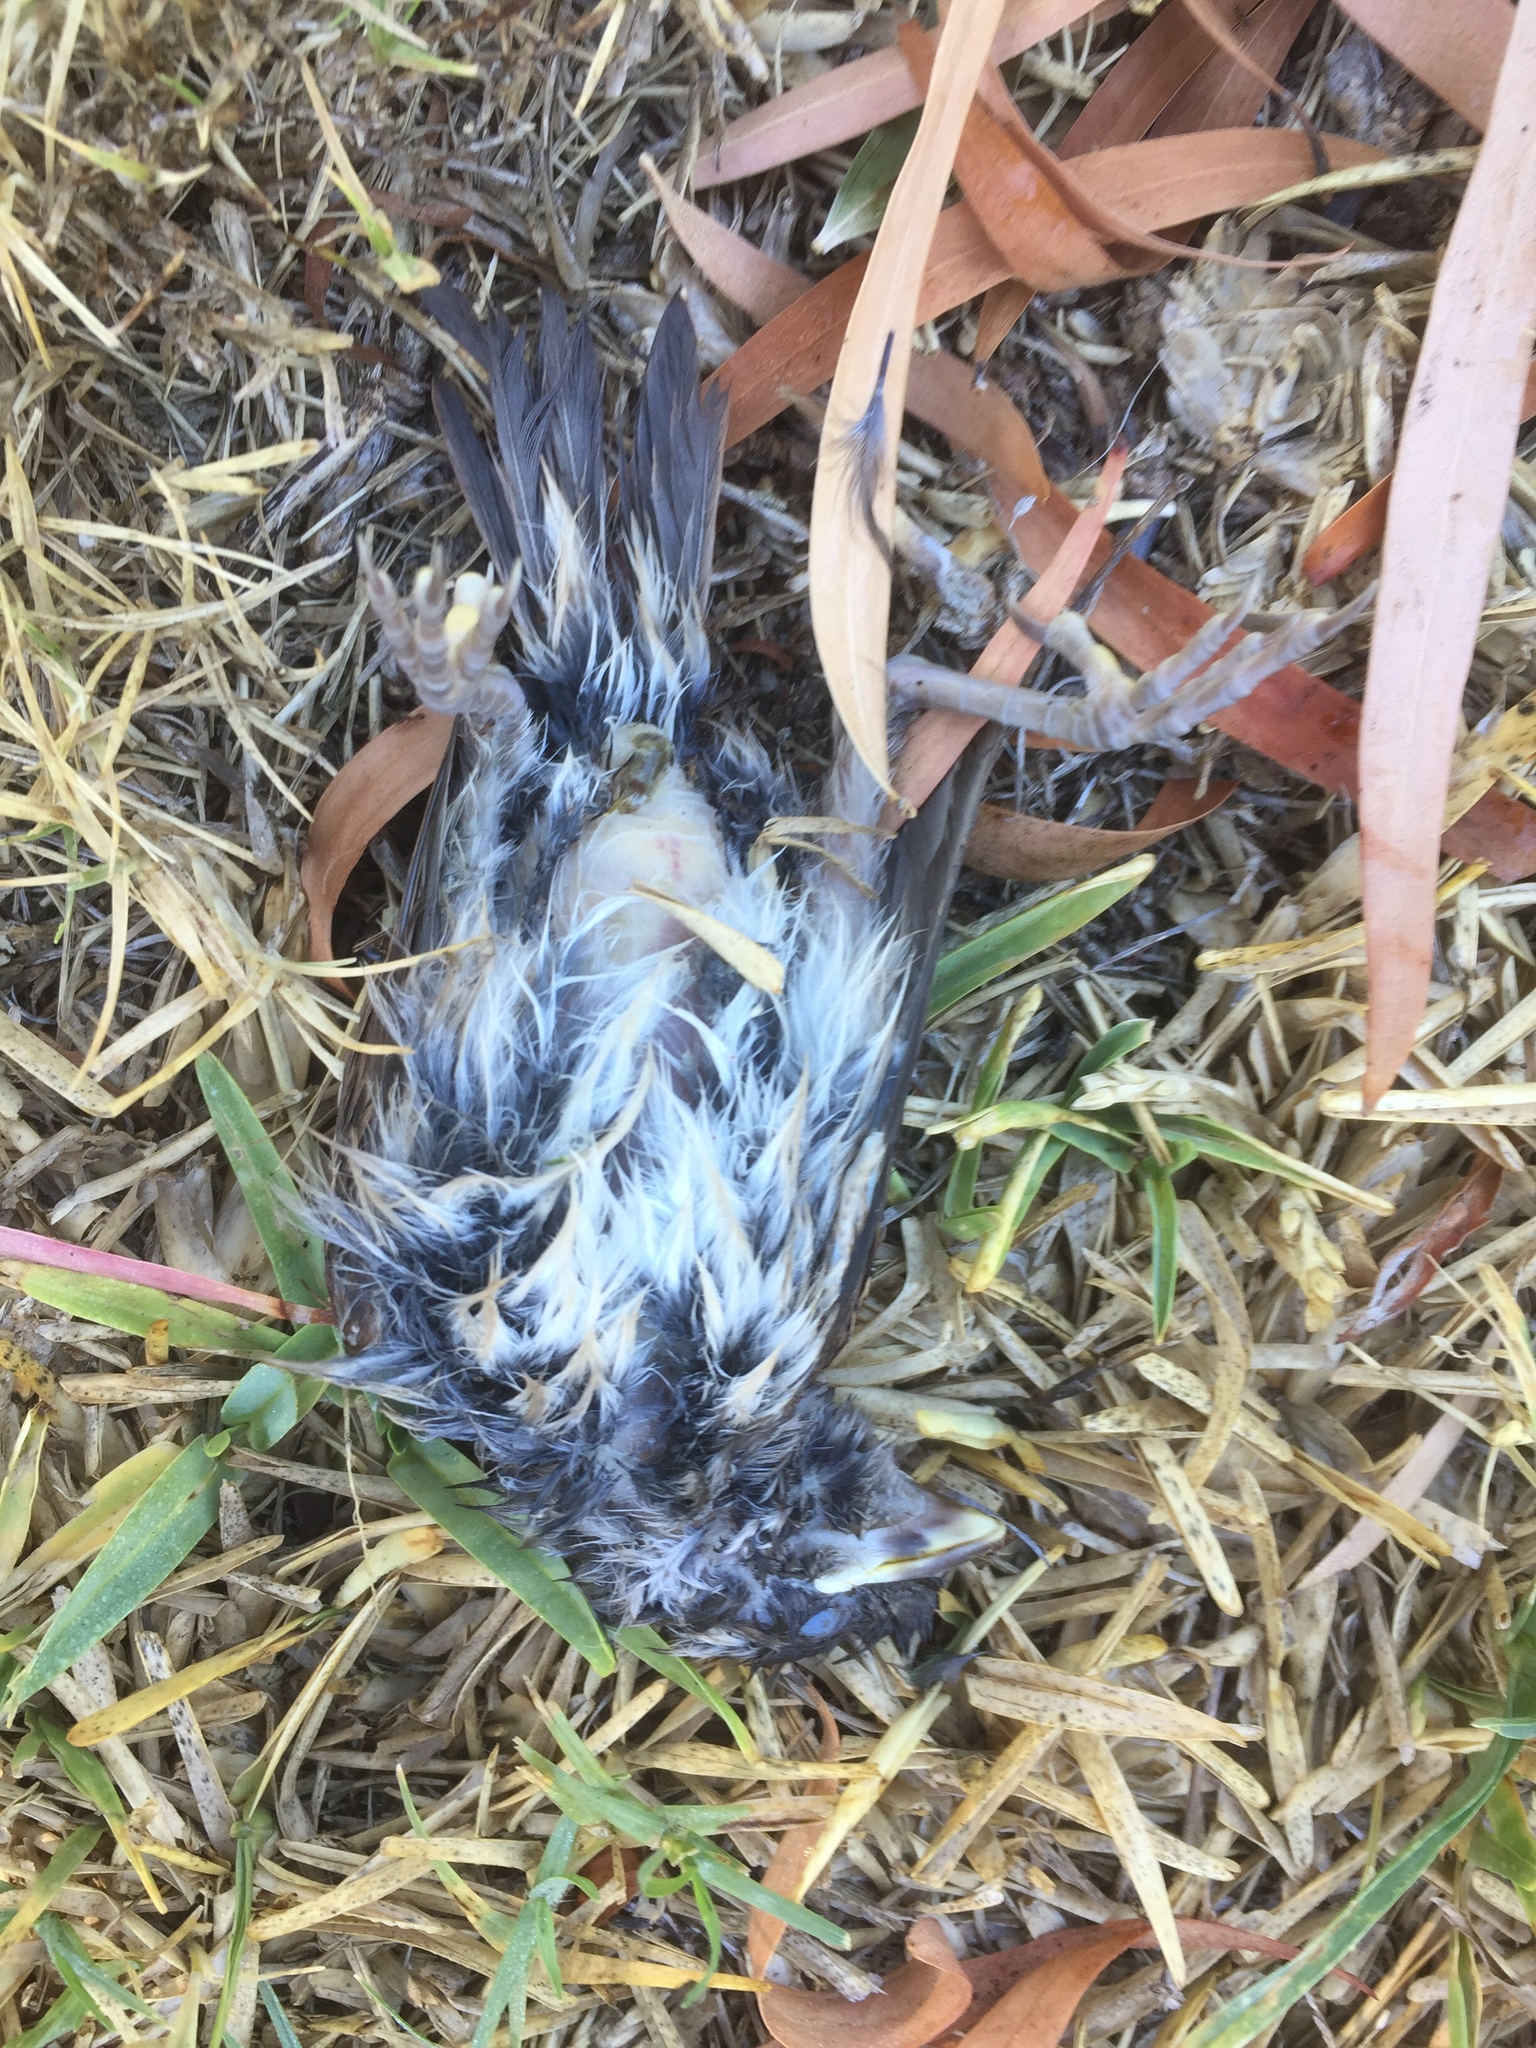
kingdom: Animalia
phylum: Chordata
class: Aves
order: Passeriformes
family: Passeridae
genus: Passer
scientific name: Passer melanurus
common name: Cape sparrow
